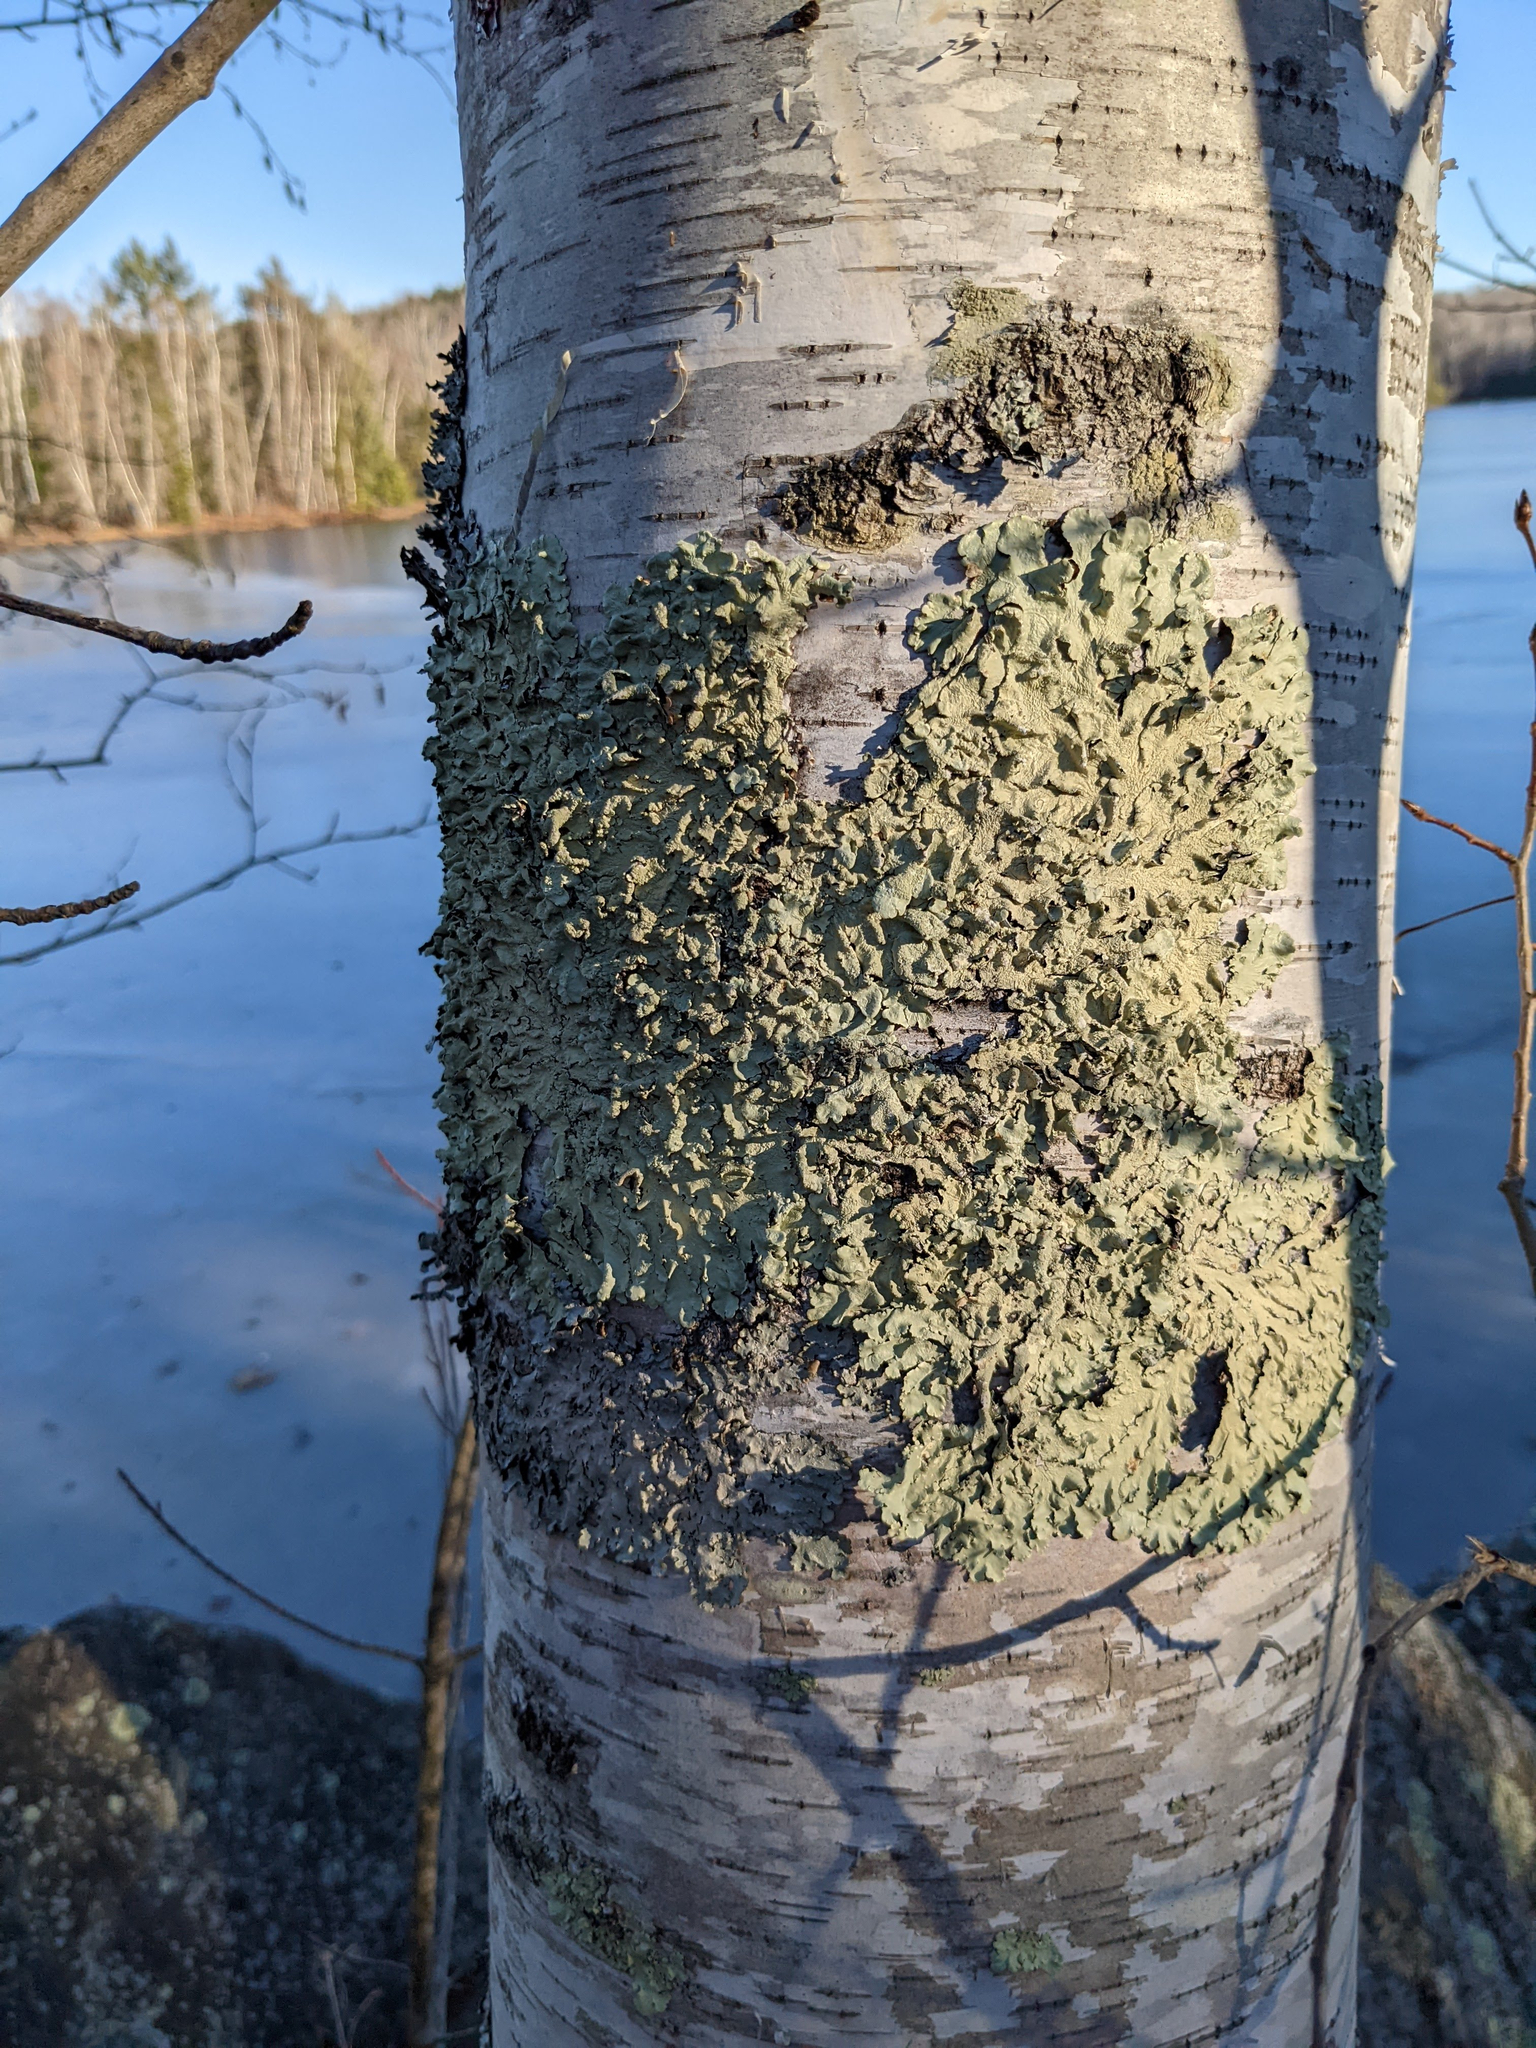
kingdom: Fungi
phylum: Ascomycota
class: Lecanoromycetes
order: Lecanorales
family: Parmeliaceae
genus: Flavoparmelia
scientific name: Flavoparmelia caperata
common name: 40-mile per hour lichen
